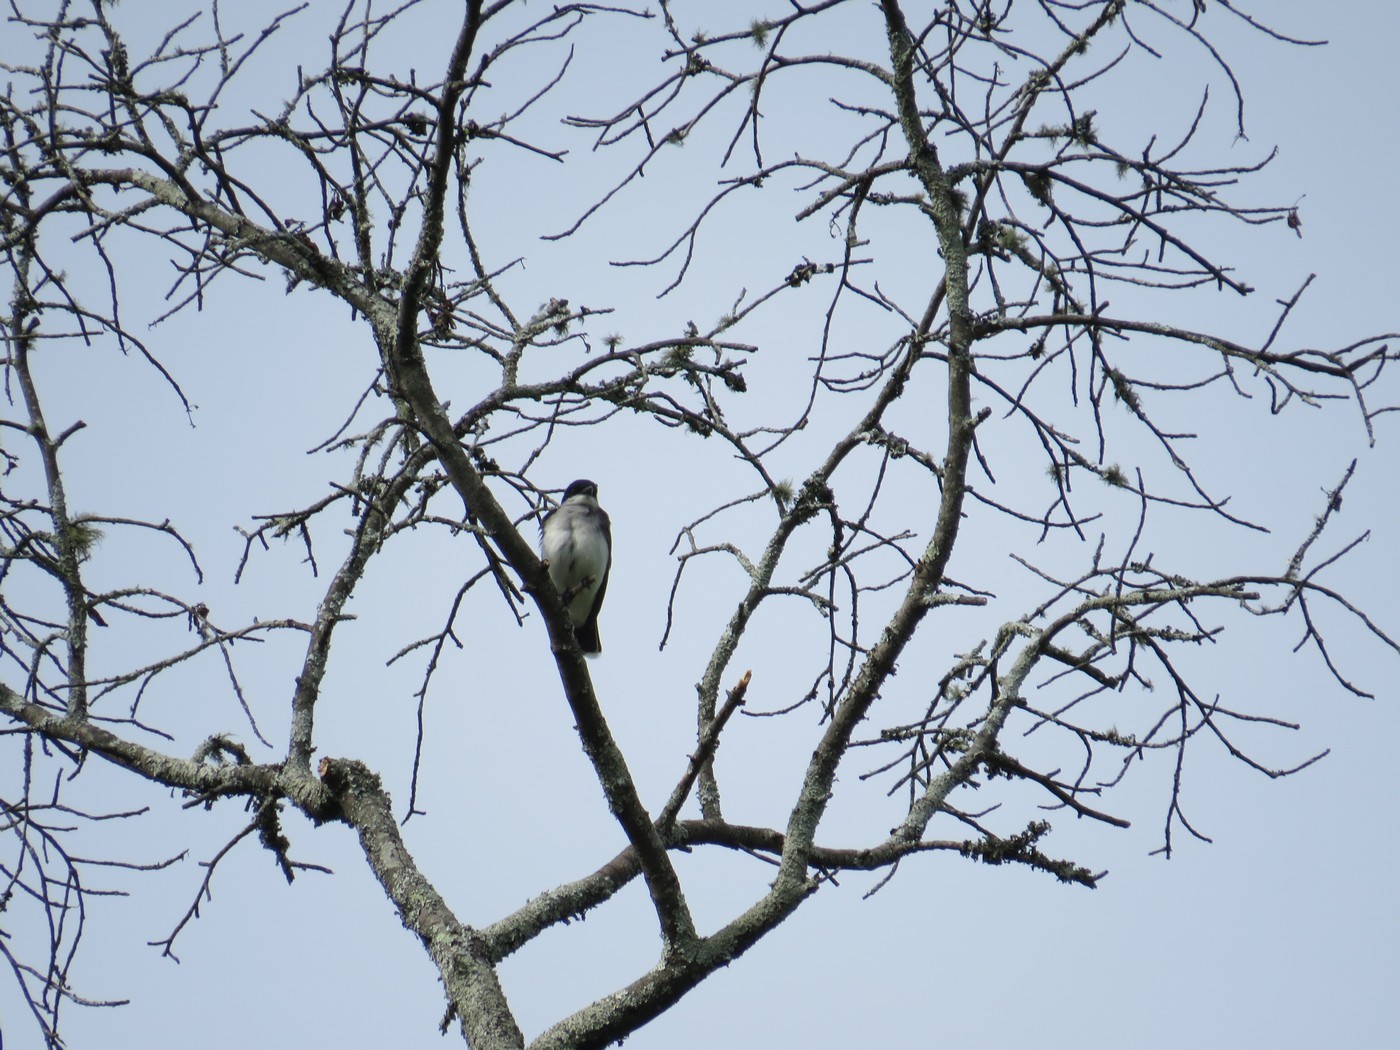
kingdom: Animalia
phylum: Chordata
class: Aves
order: Passeriformes
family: Tyrannidae
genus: Tyrannus
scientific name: Tyrannus tyrannus
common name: Eastern kingbird
